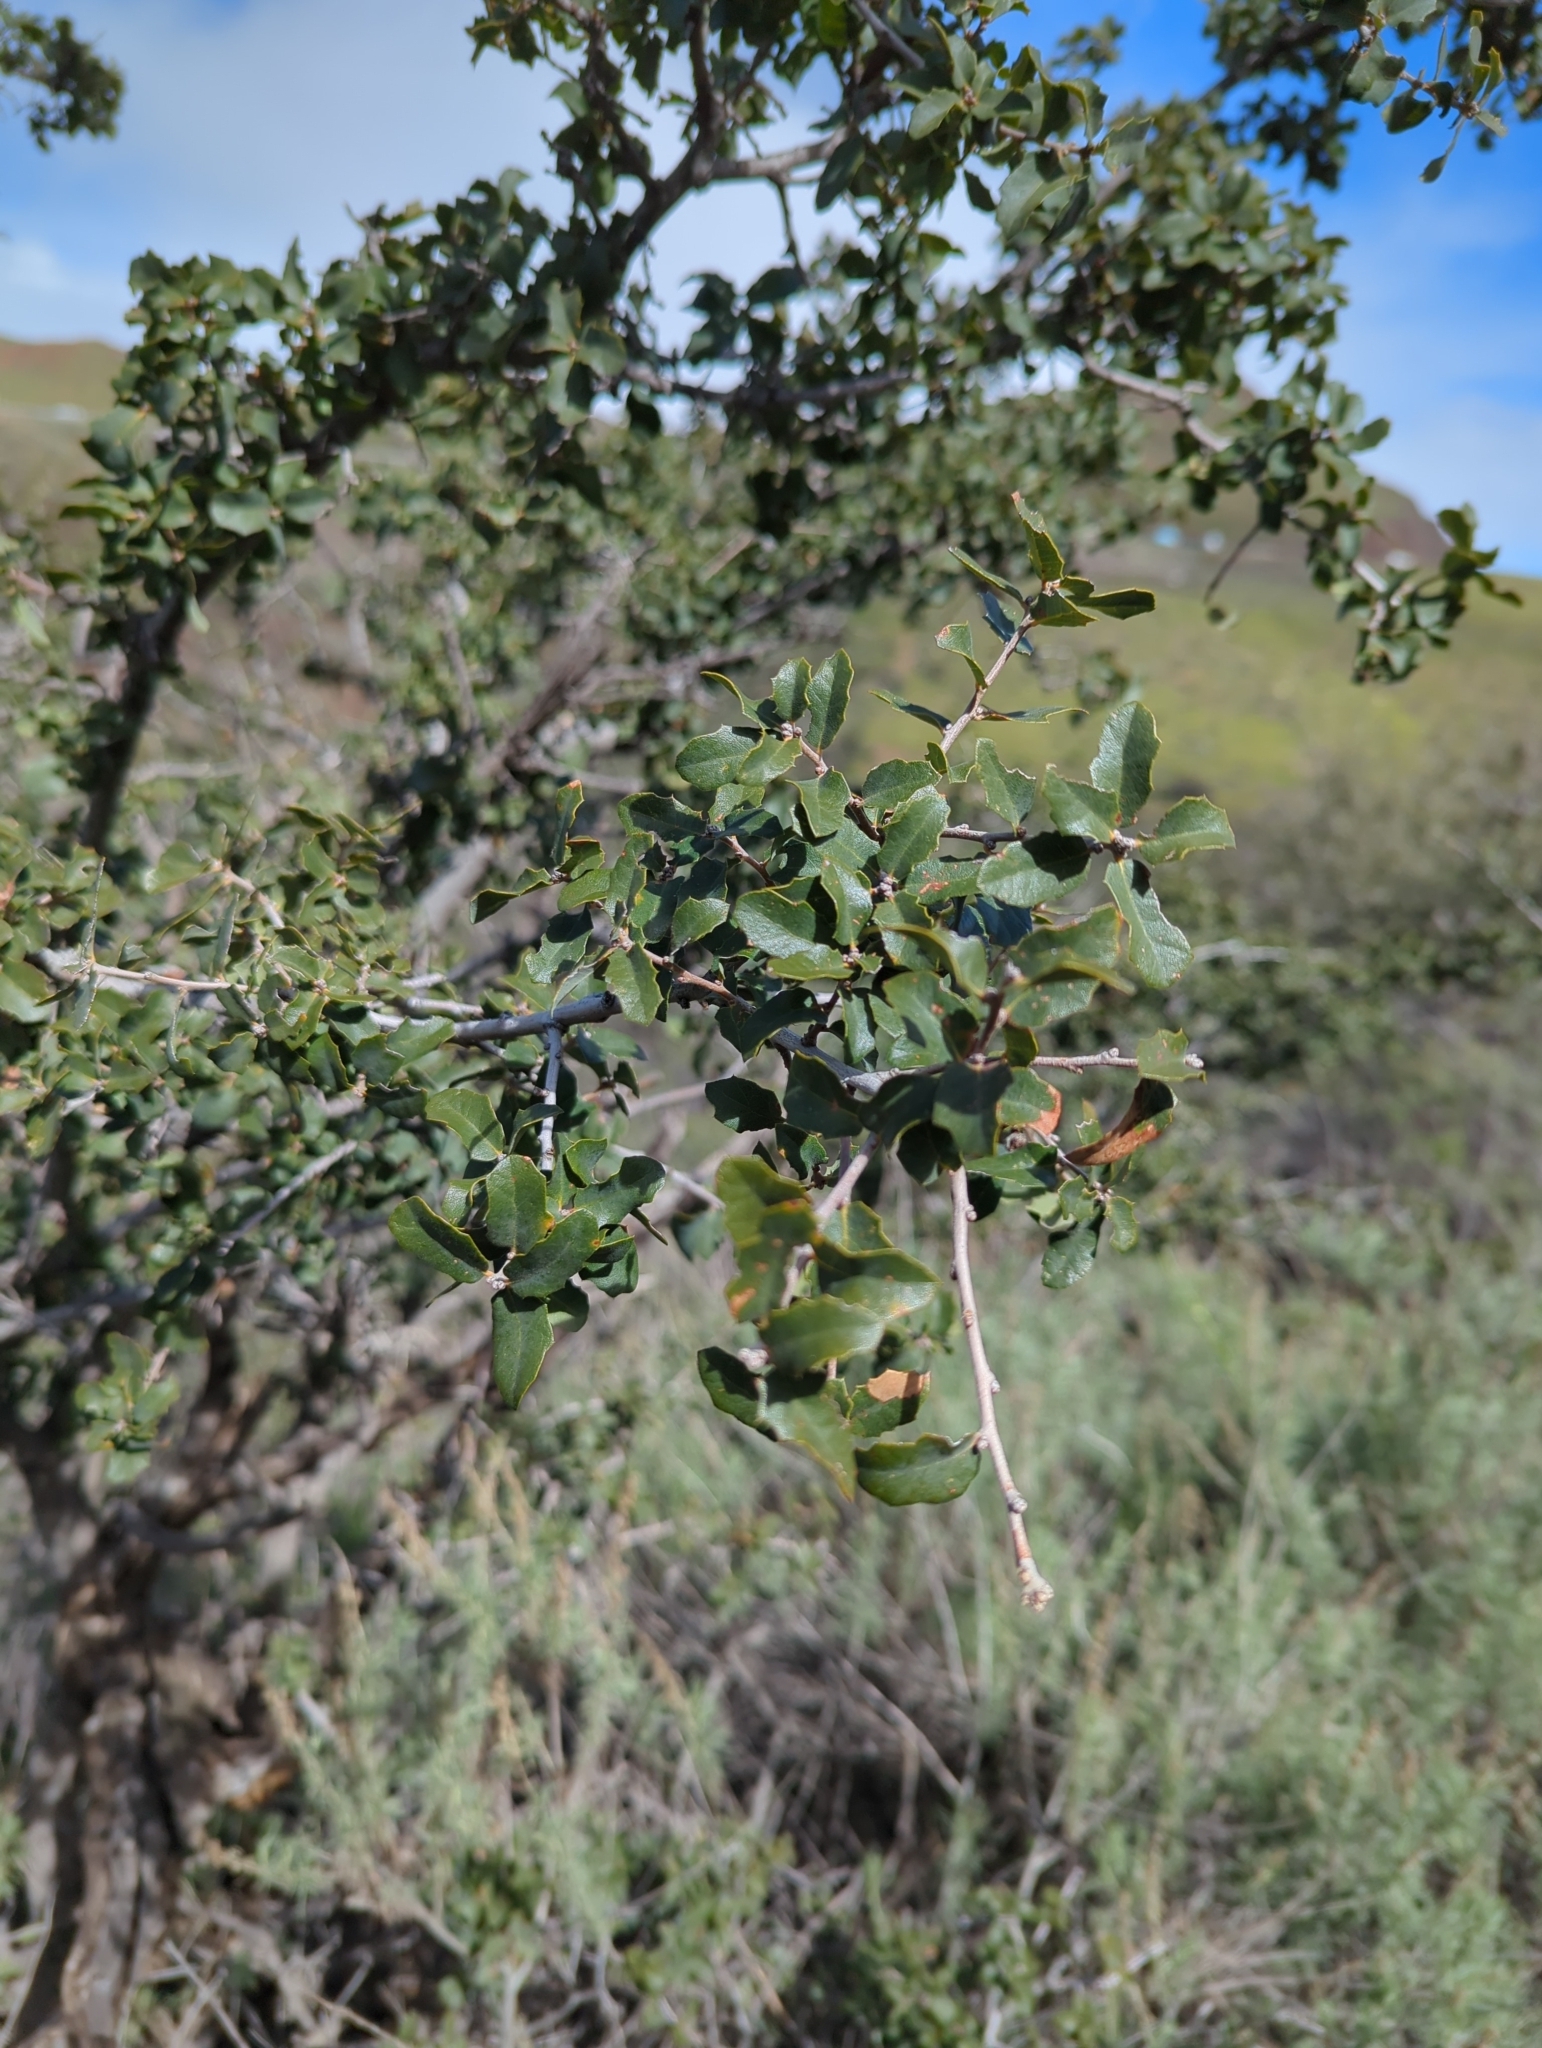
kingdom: Plantae
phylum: Tracheophyta
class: Magnoliopsida
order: Fagales
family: Fagaceae
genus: Quercus
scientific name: Quercus alvordiana
